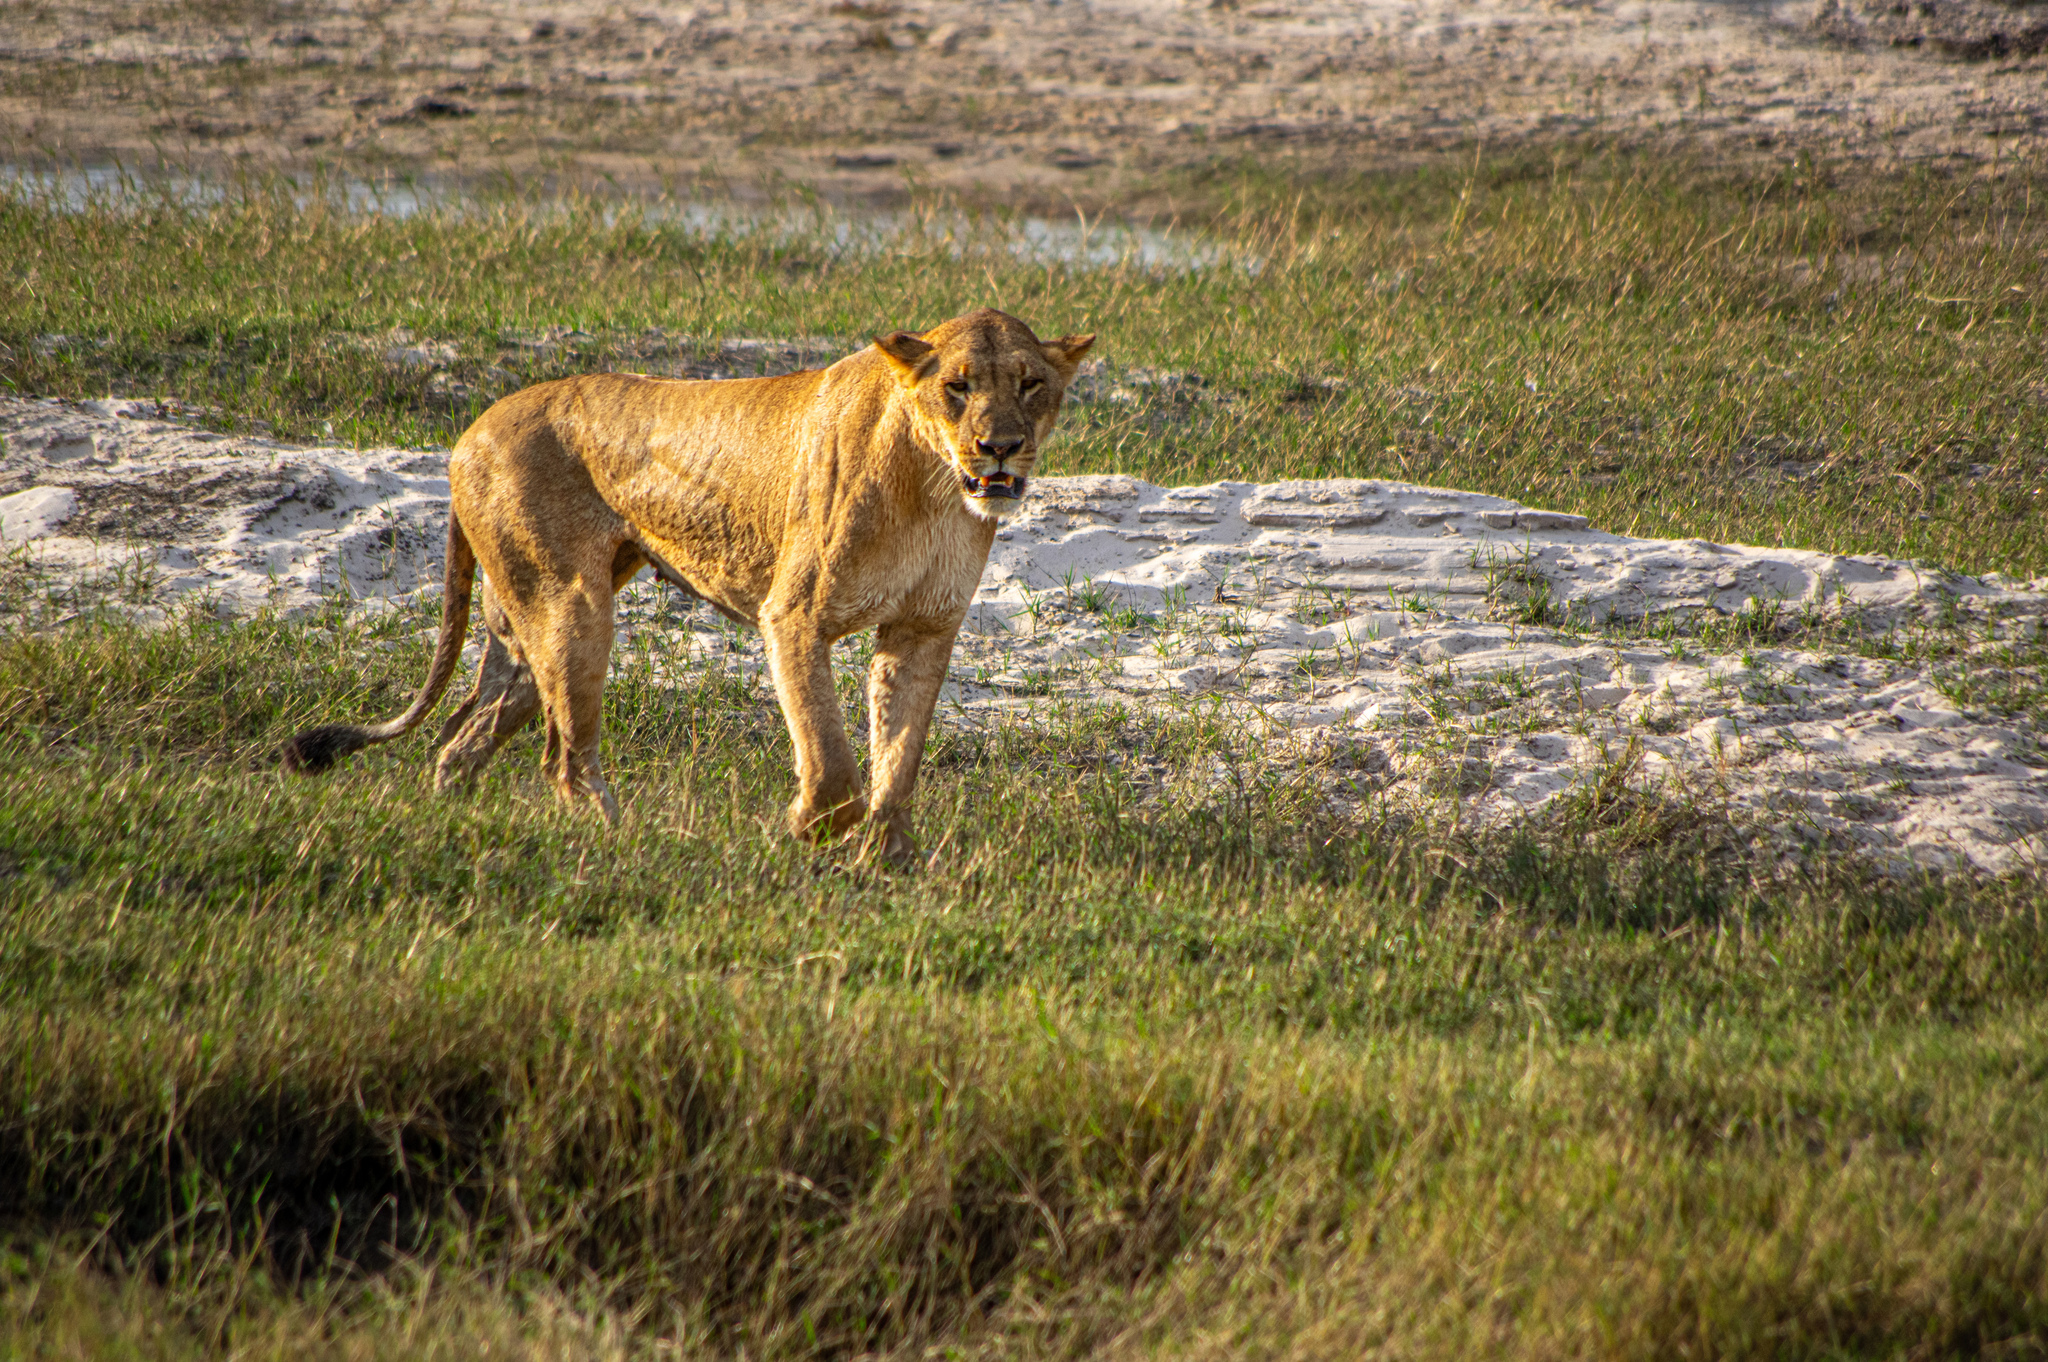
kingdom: Animalia
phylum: Chordata
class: Mammalia
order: Carnivora
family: Felidae
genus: Panthera
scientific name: Panthera leo
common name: Lion
